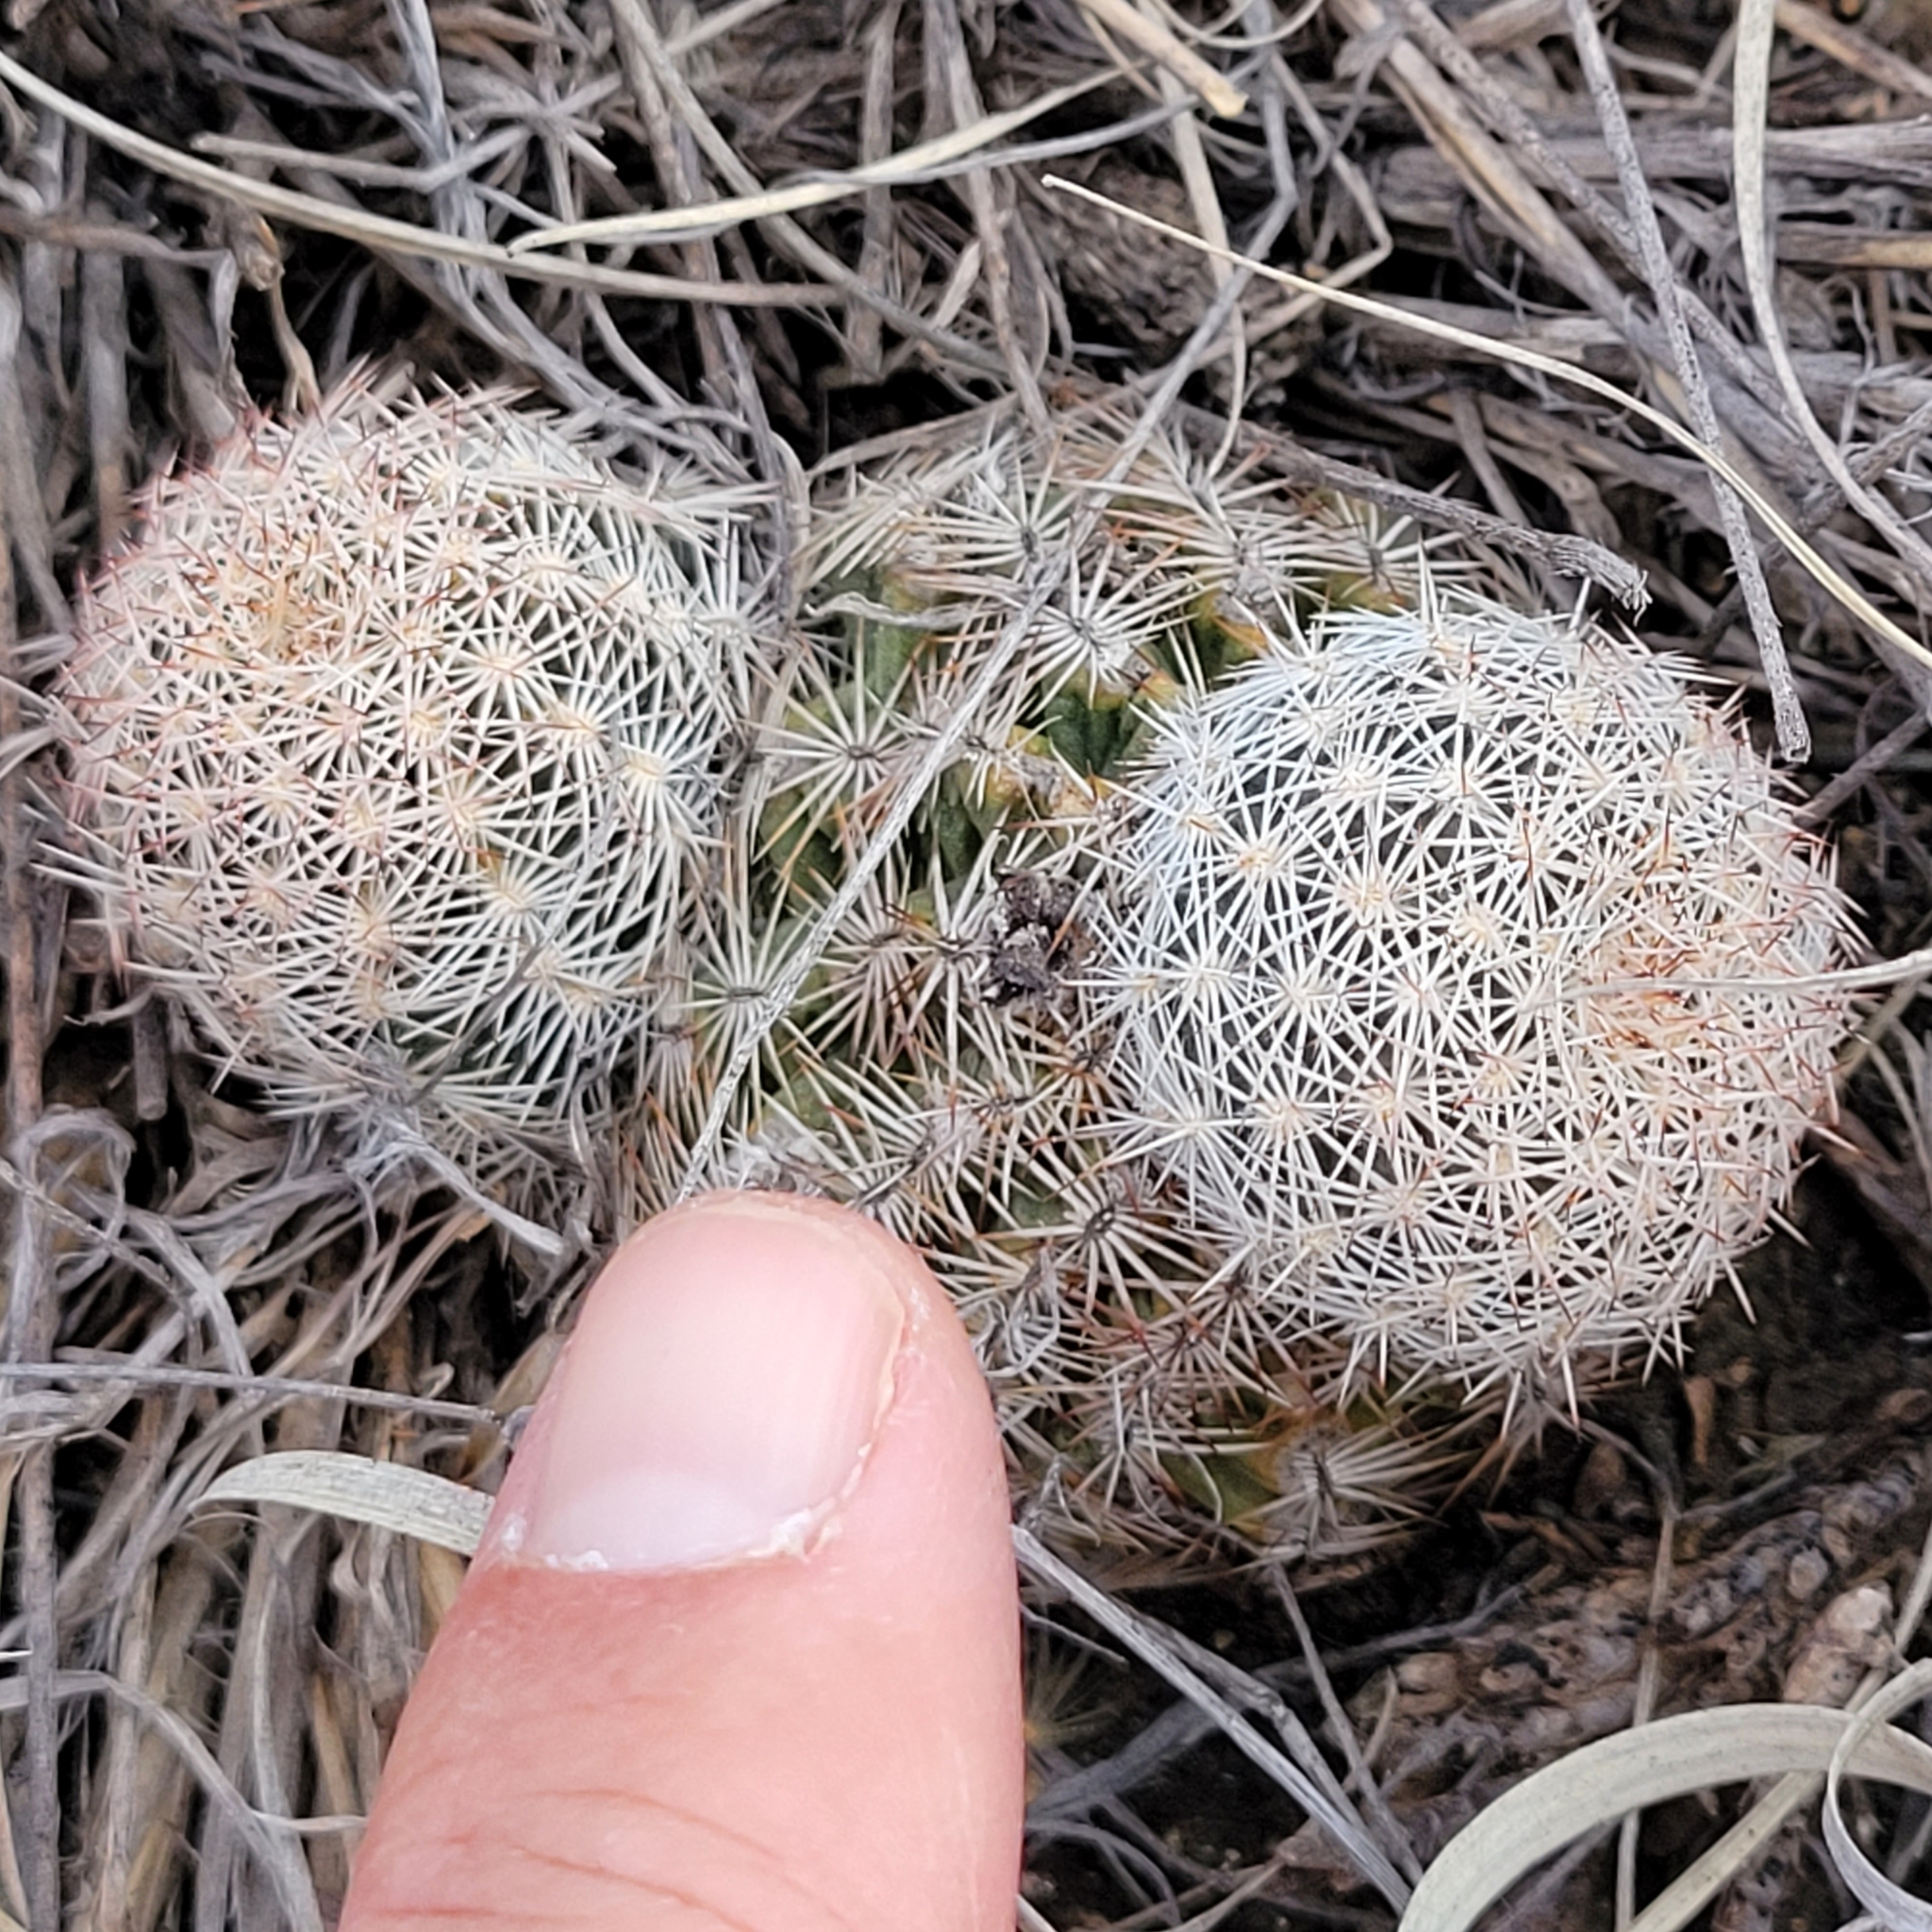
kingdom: Plantae
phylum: Tracheophyta
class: Magnoliopsida
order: Caryophyllales
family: Cactaceae
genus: Echinocereus
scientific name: Echinocereus reichenbachii
